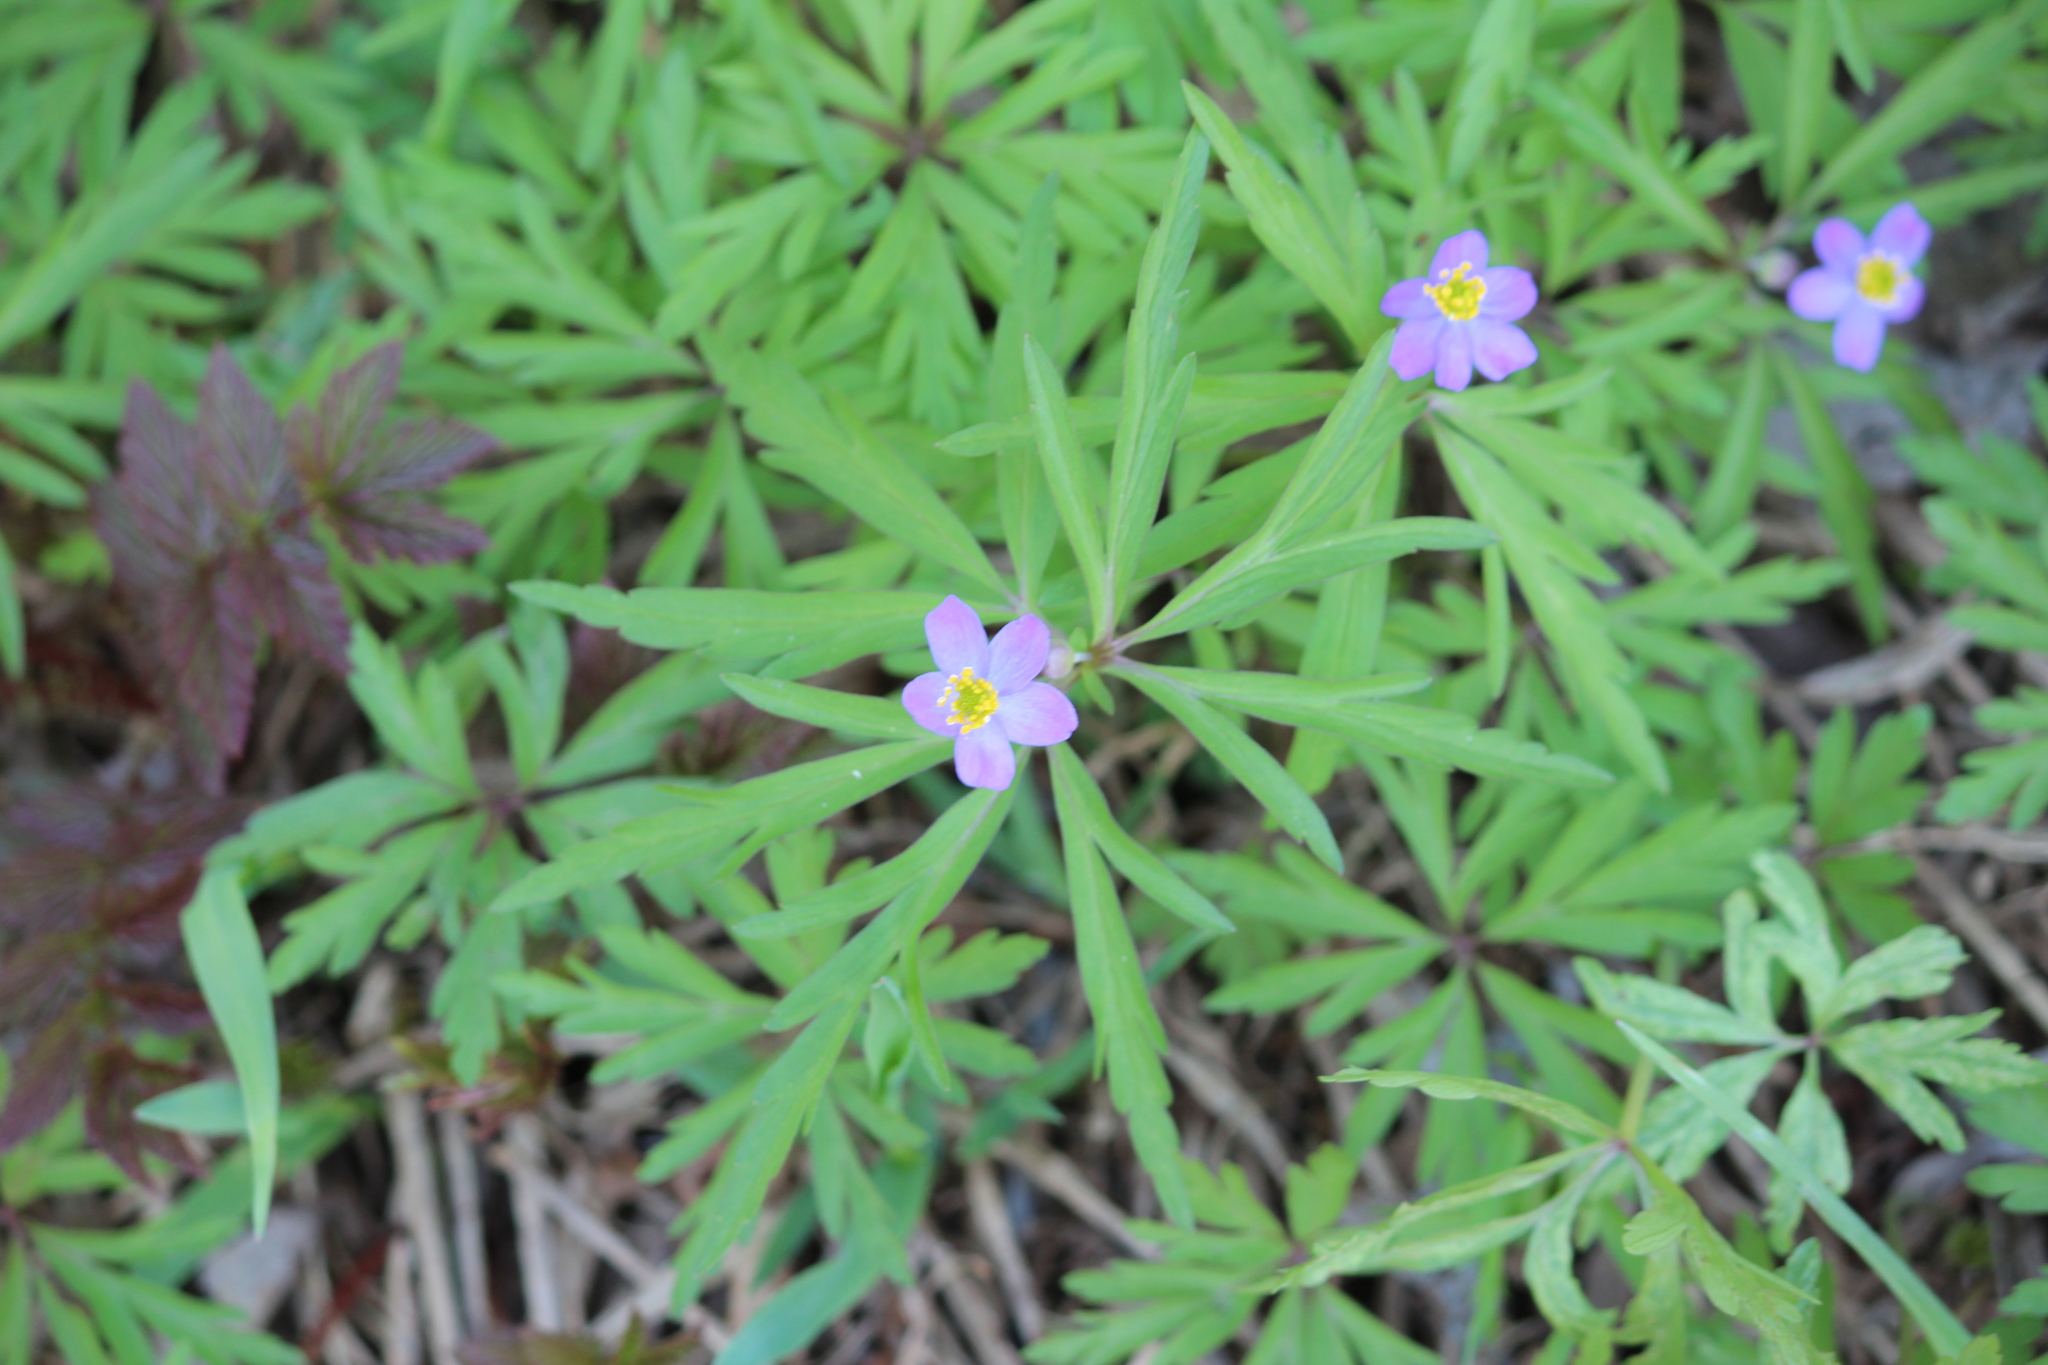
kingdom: Plantae
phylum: Tracheophyta
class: Magnoliopsida
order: Ranunculales
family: Ranunculaceae
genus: Anemone
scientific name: Anemone caerulea
